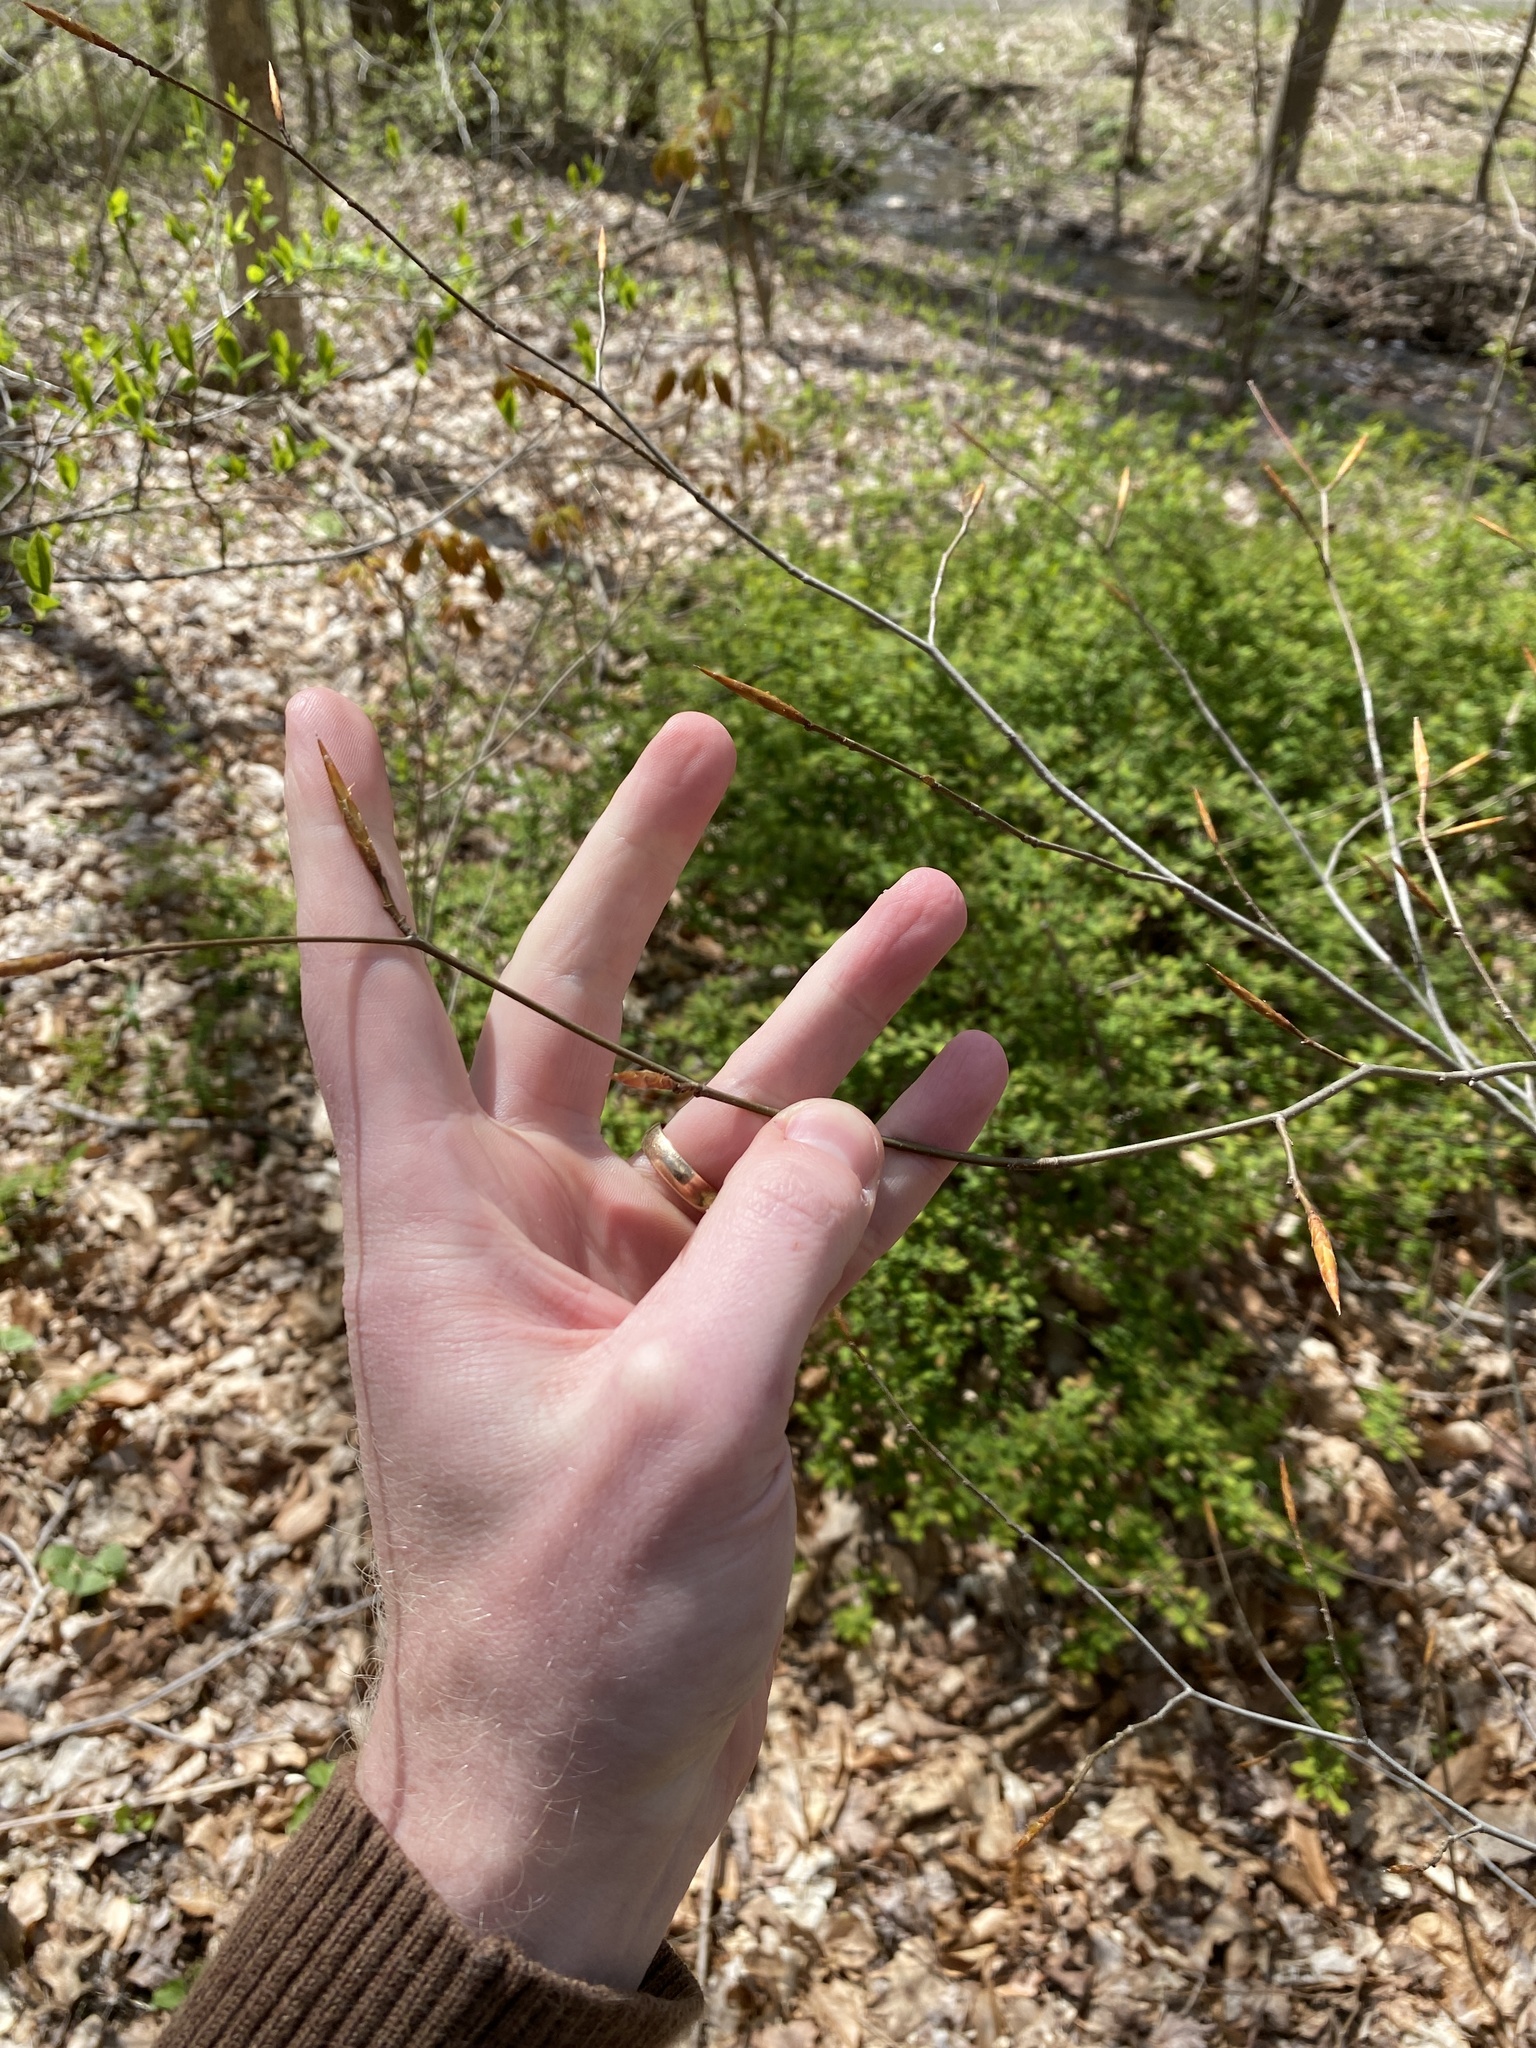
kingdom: Plantae
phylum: Tracheophyta
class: Magnoliopsida
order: Fagales
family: Fagaceae
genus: Fagus
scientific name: Fagus grandifolia
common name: American beech
